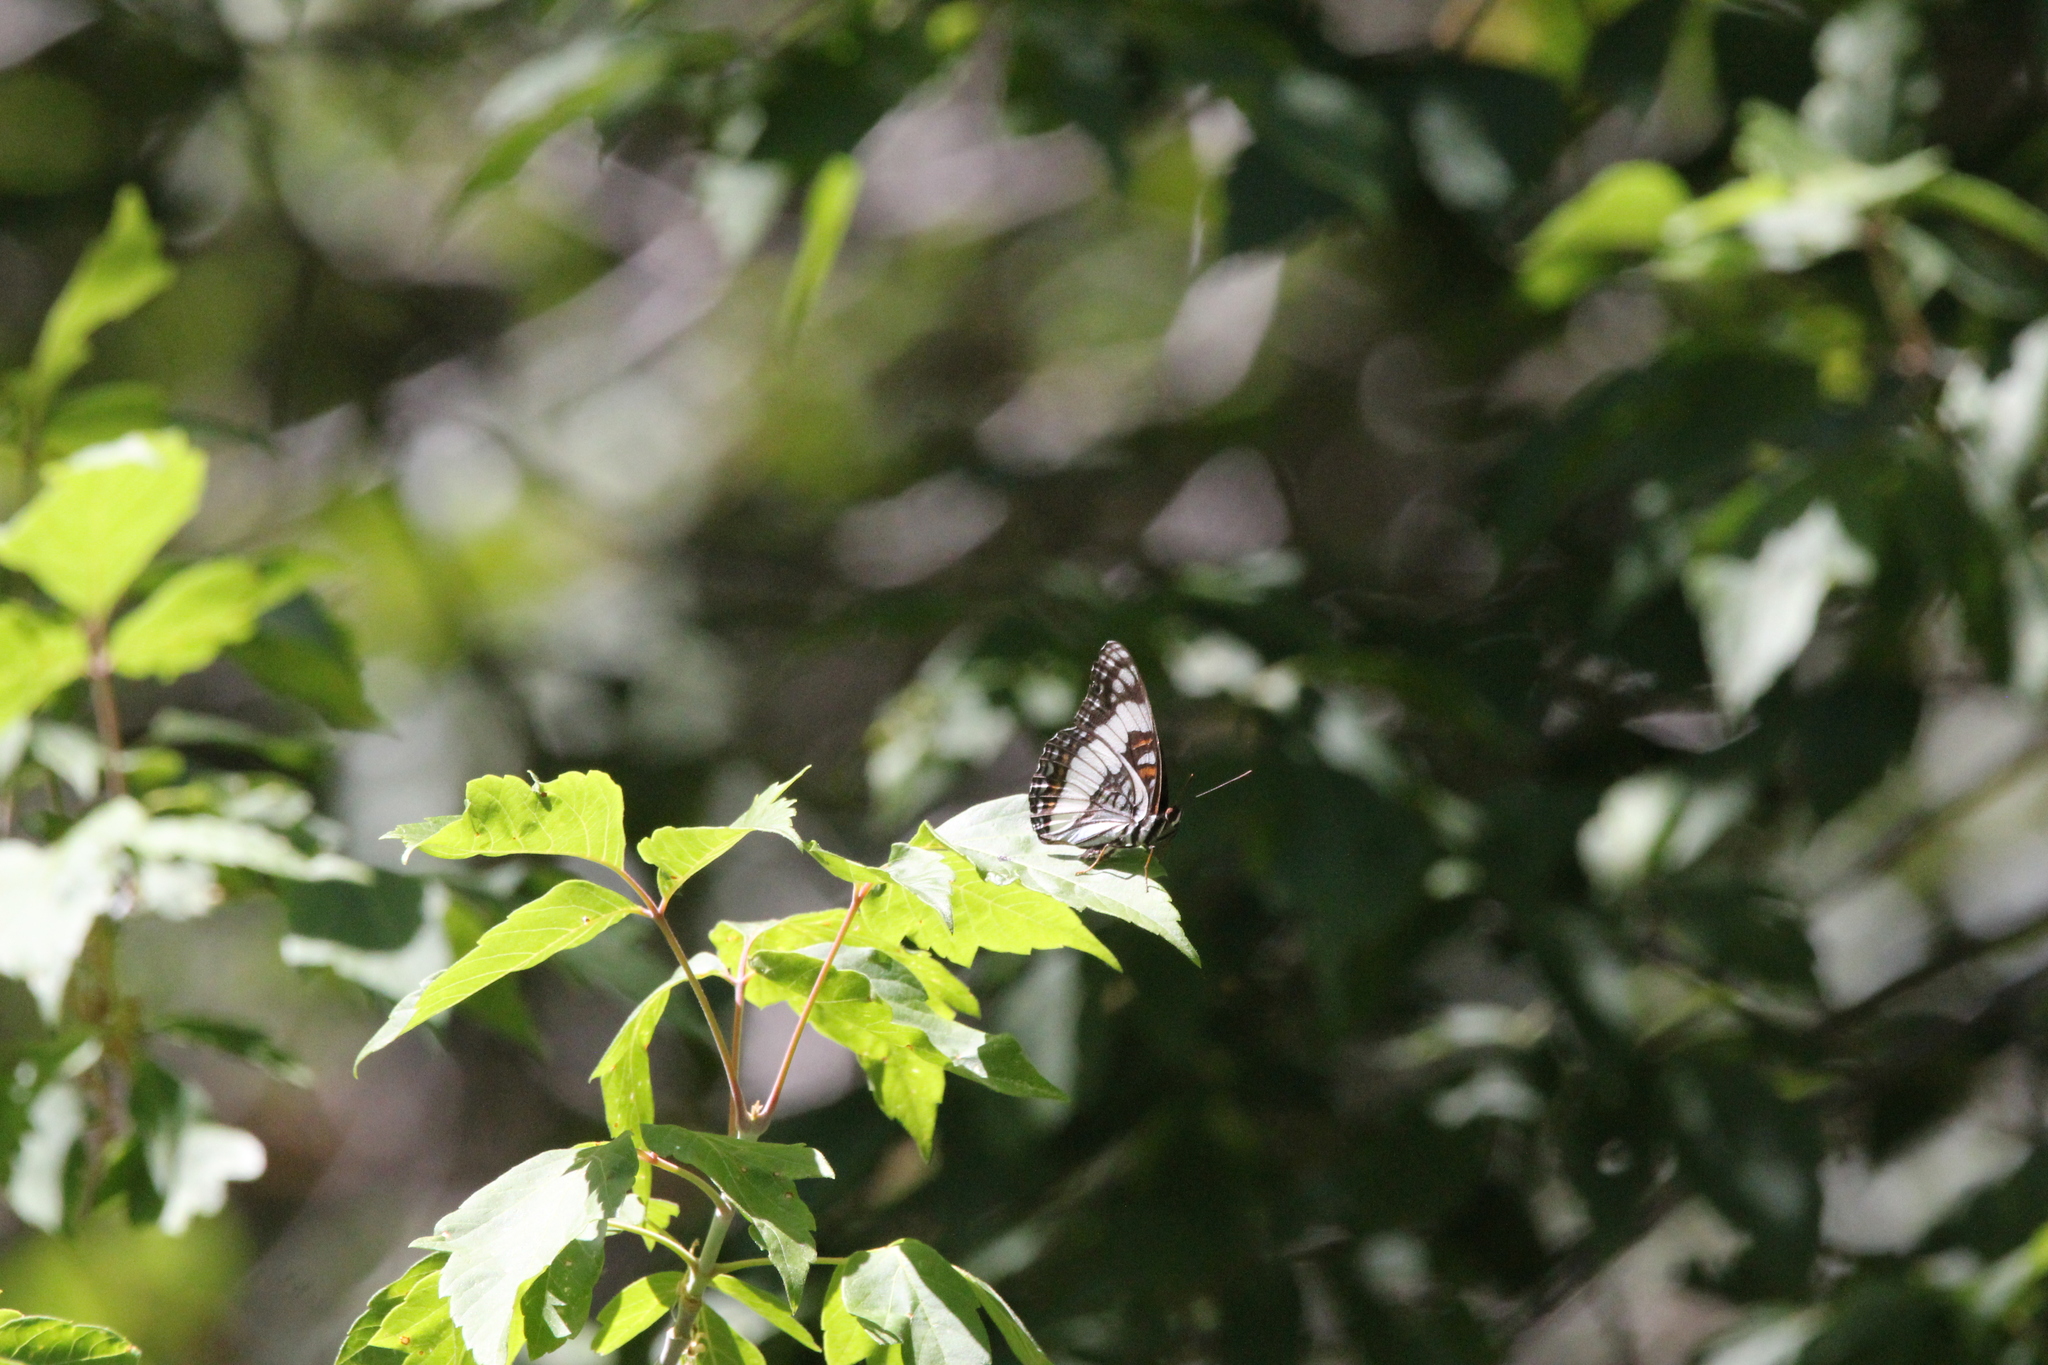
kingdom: Animalia
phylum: Arthropoda
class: Insecta
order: Lepidoptera
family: Nymphalidae
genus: Limenitis
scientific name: Limenitis weidemeyerii
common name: Weidemeyer's admiral
